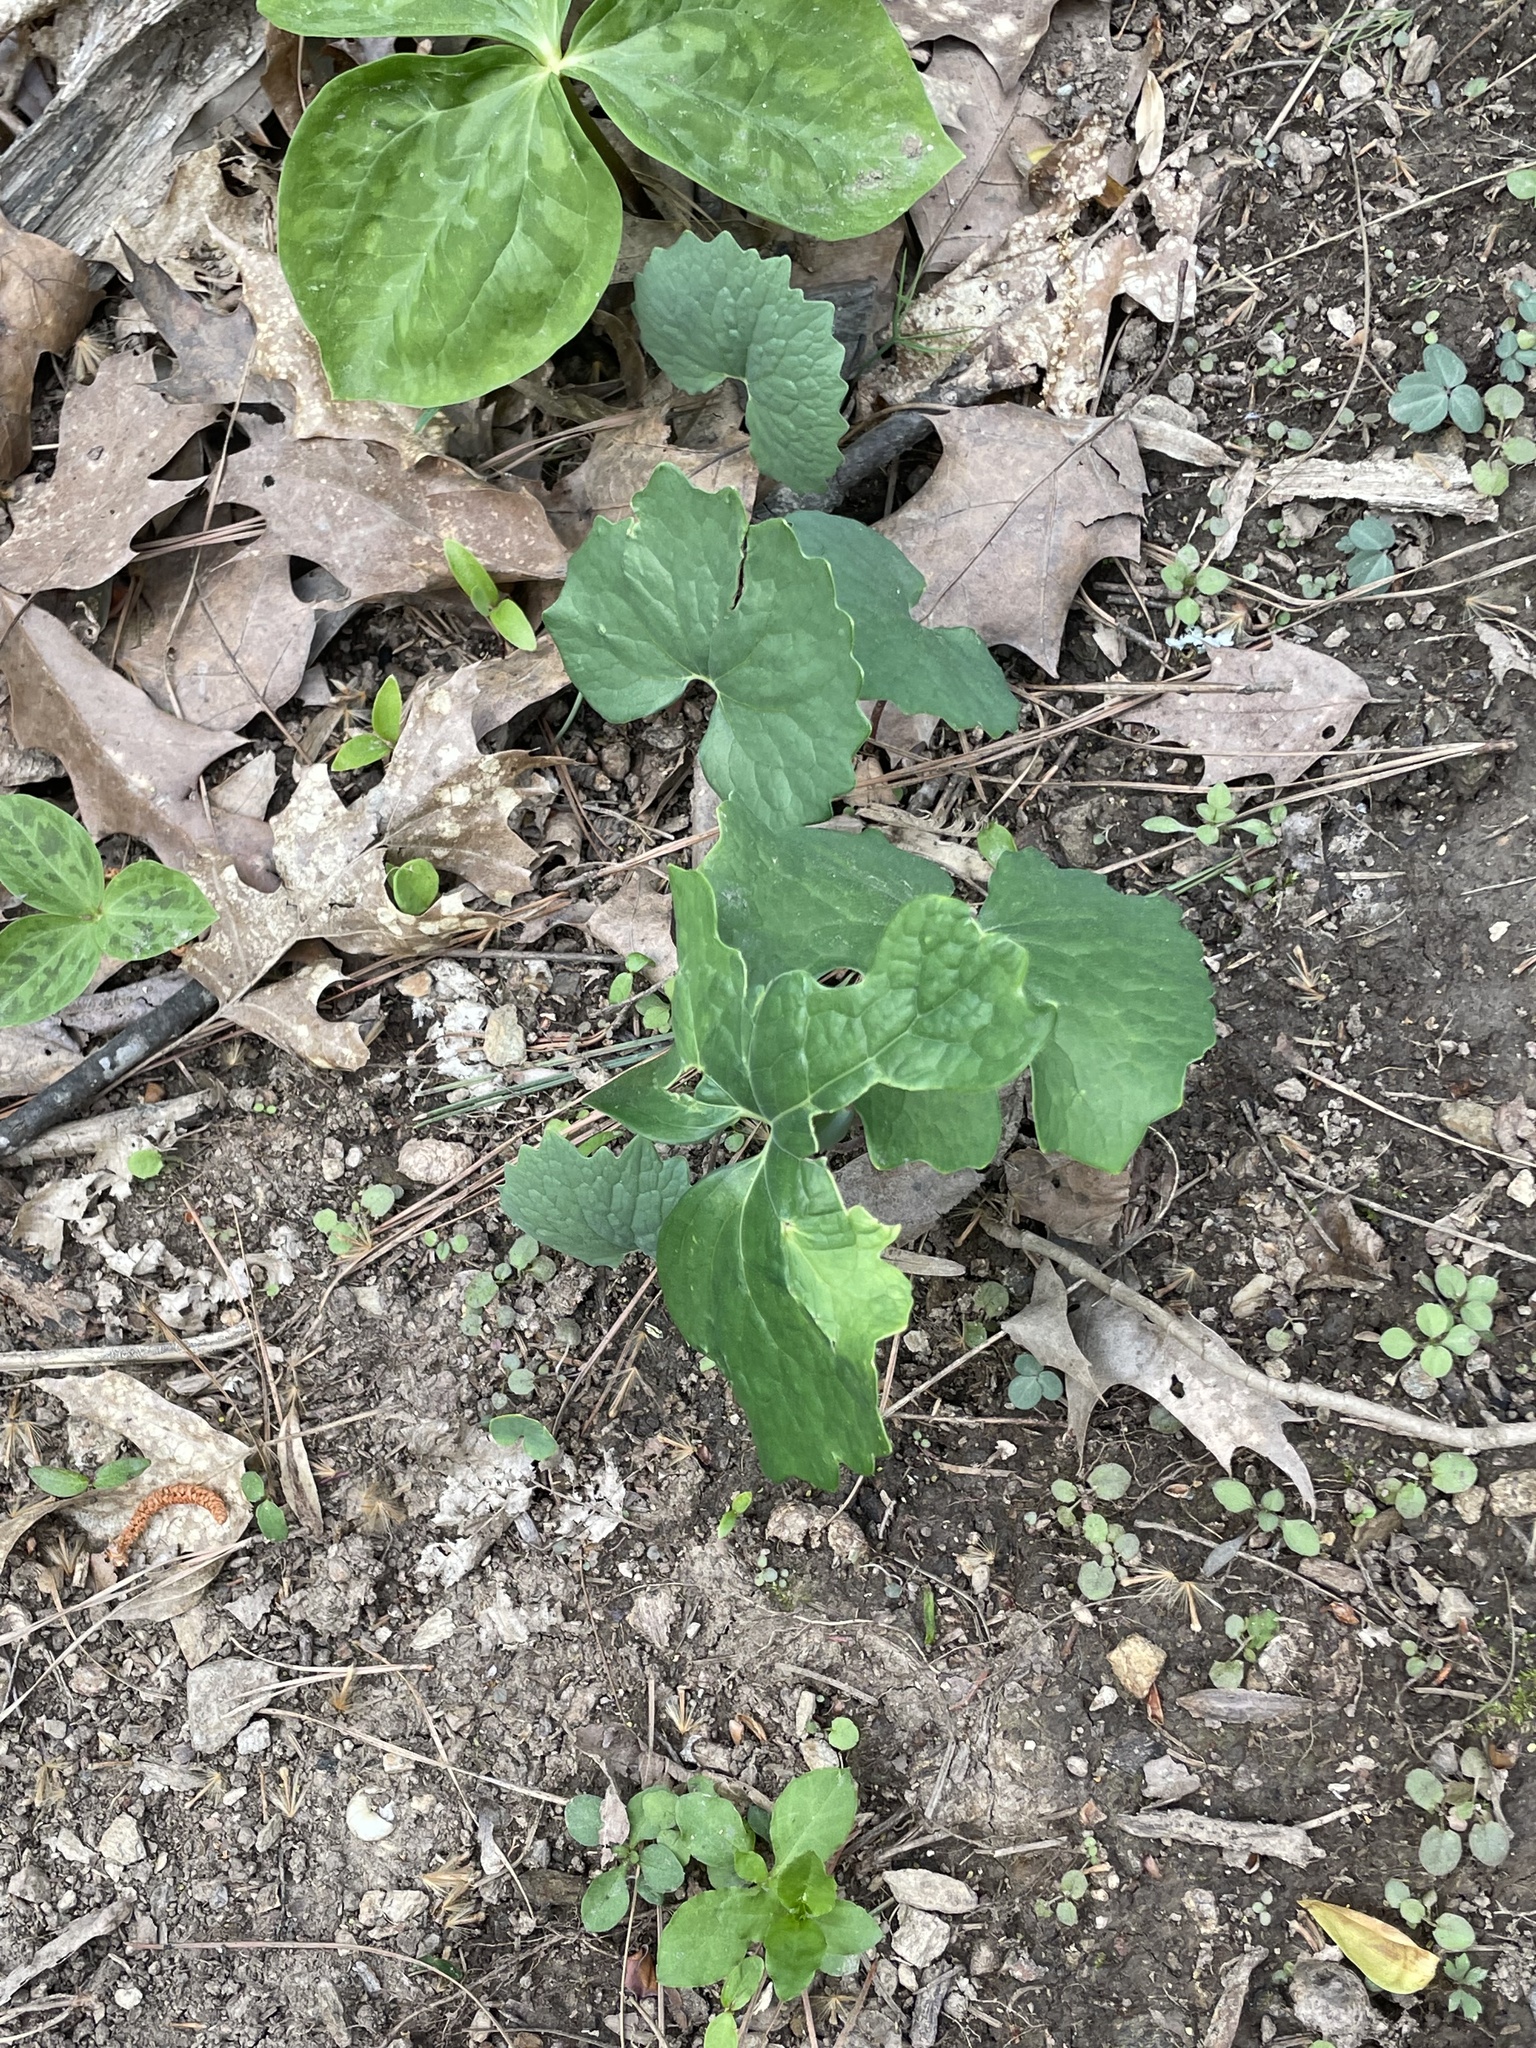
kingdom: Plantae
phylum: Tracheophyta
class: Magnoliopsida
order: Ranunculales
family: Papaveraceae
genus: Sanguinaria
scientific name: Sanguinaria canadensis
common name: Bloodroot
